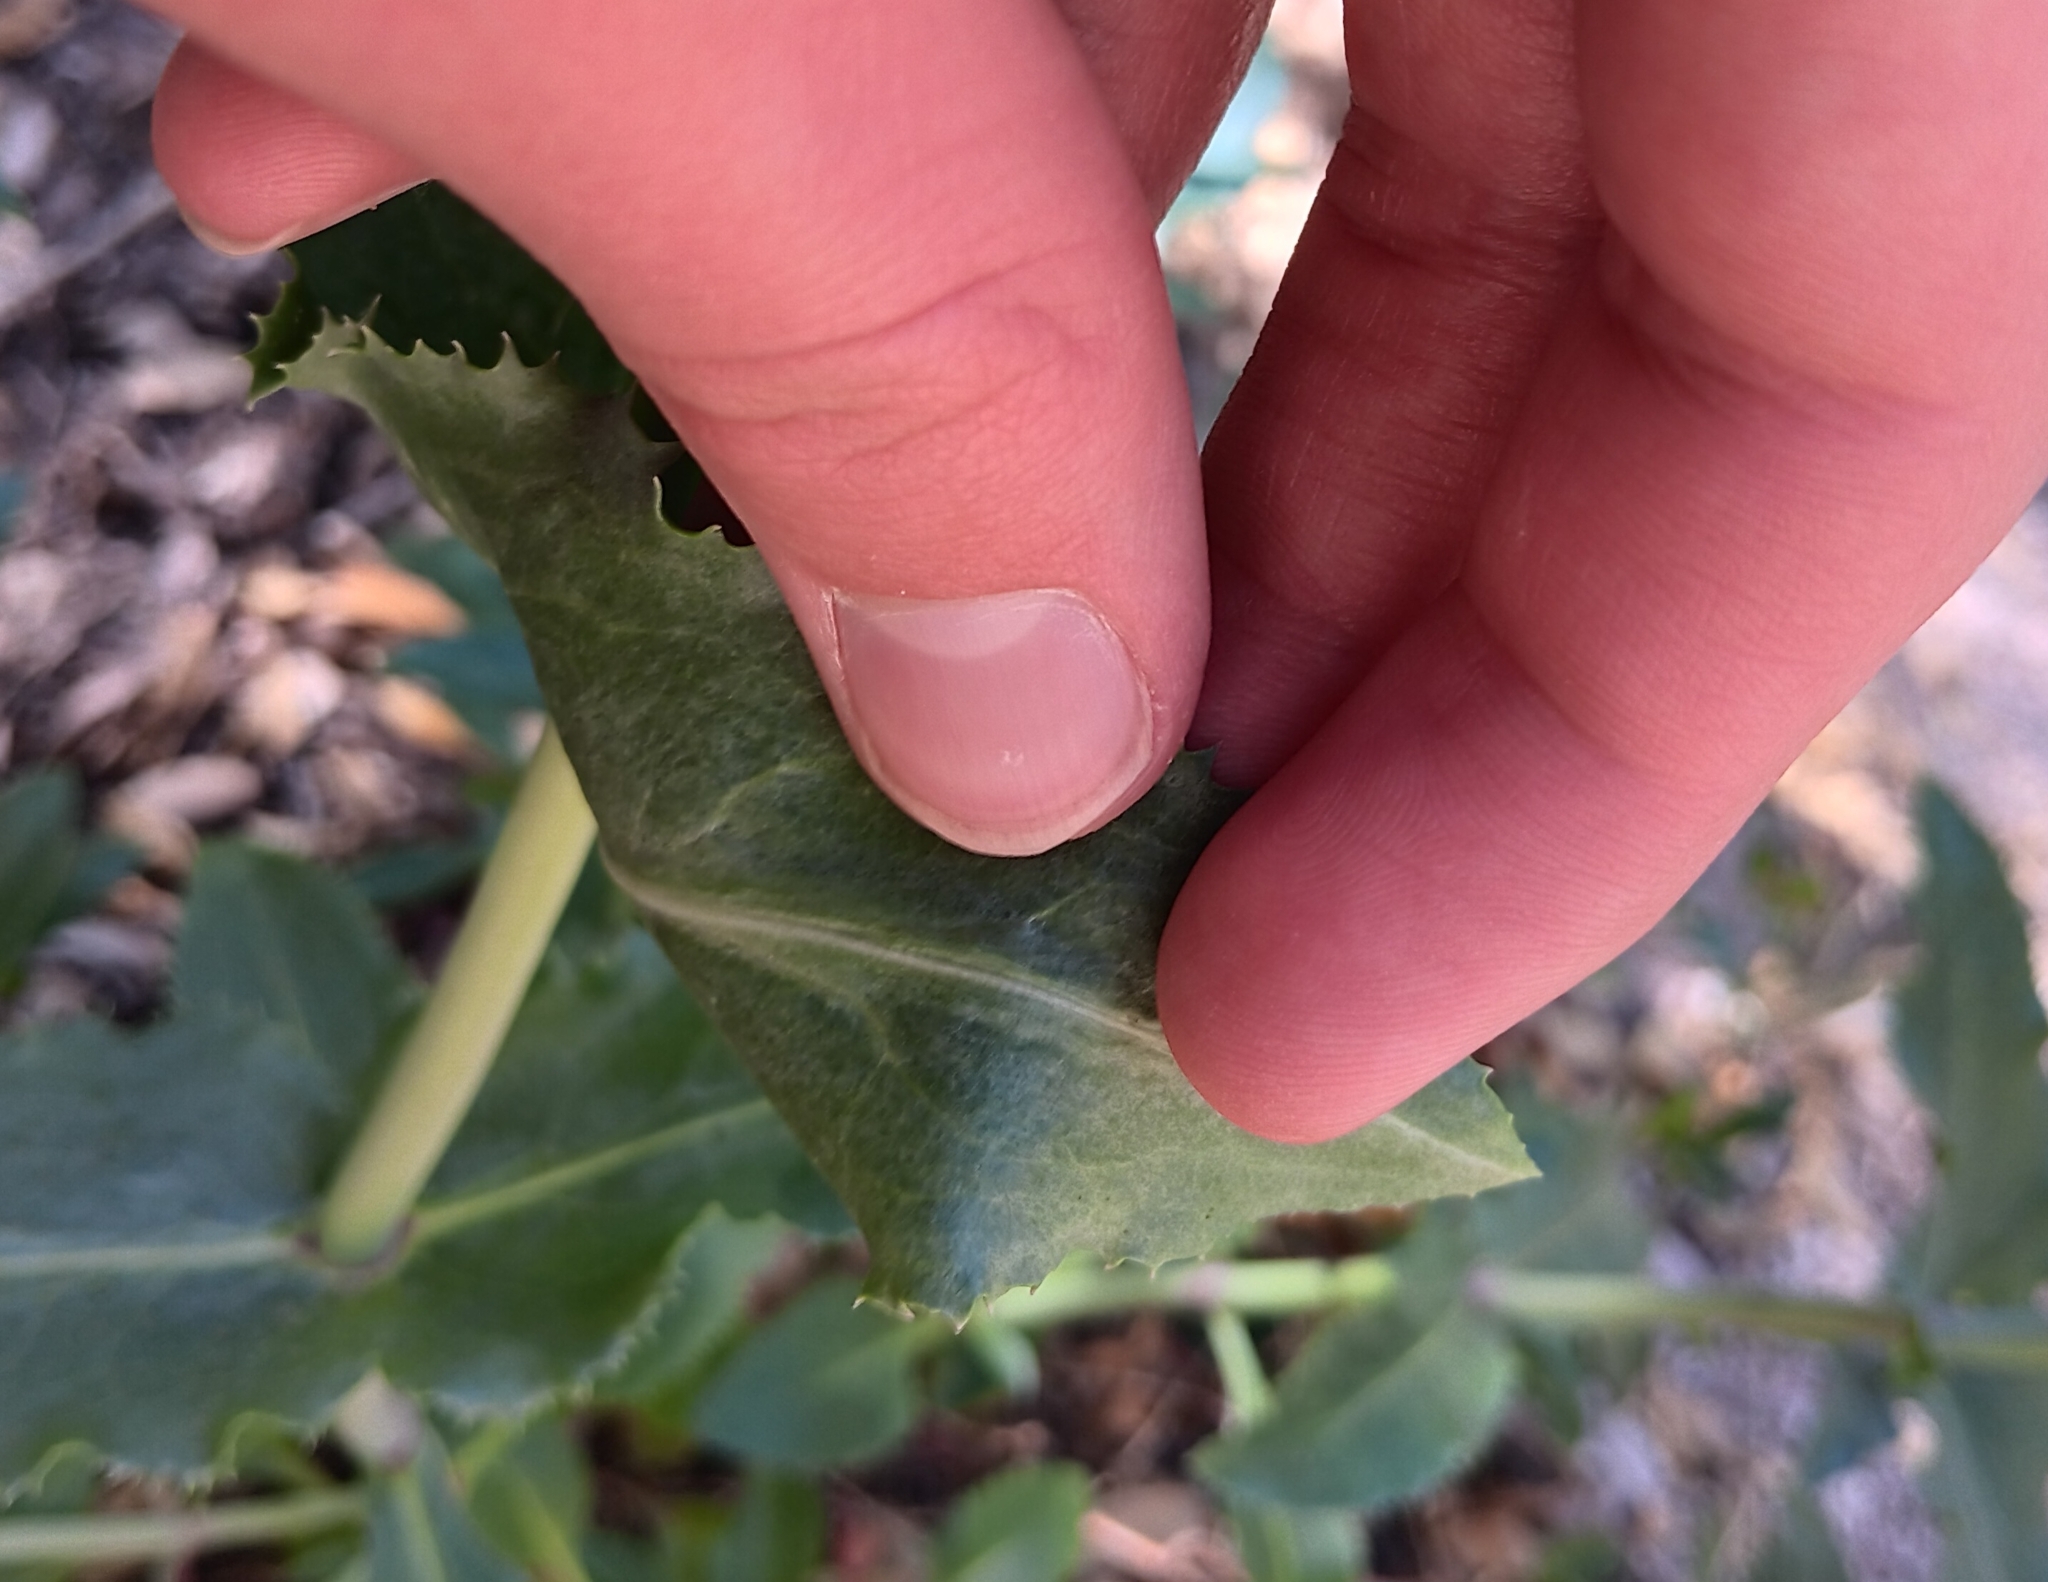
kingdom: Plantae
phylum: Tracheophyta
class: Magnoliopsida
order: Lamiales
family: Plantaginaceae
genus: Penstemon
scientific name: Penstemon pseudospectabilis
